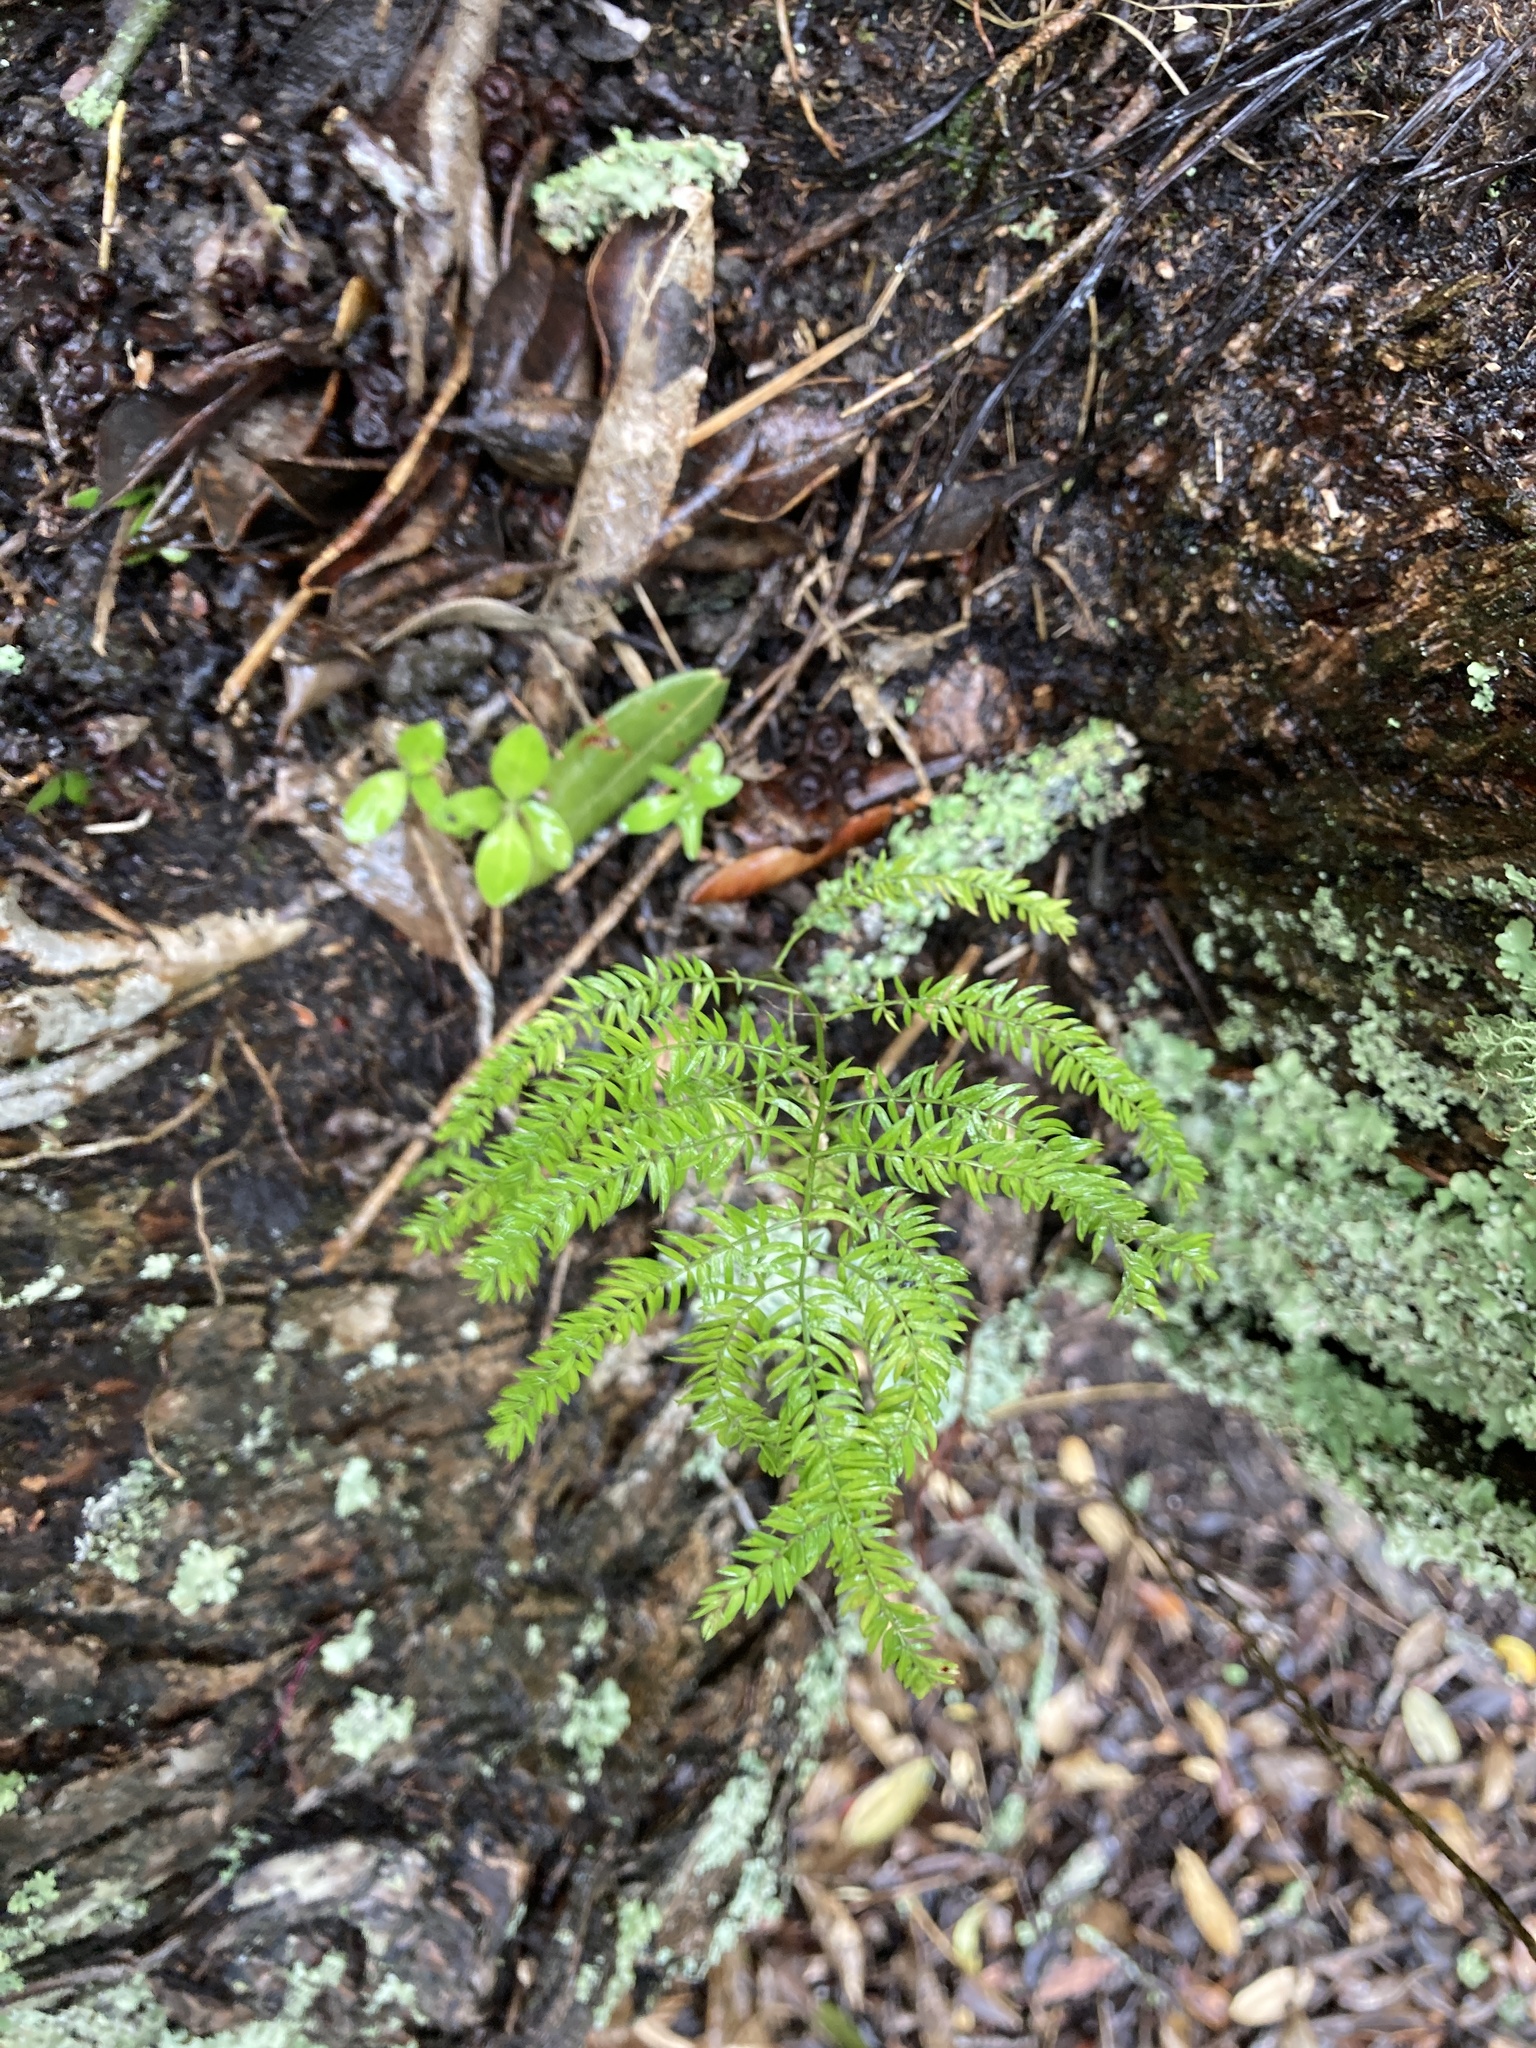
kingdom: Plantae
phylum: Tracheophyta
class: Liliopsida
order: Asparagales
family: Asparagaceae
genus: Asparagus
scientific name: Asparagus scandens
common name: Asparagus-fern
